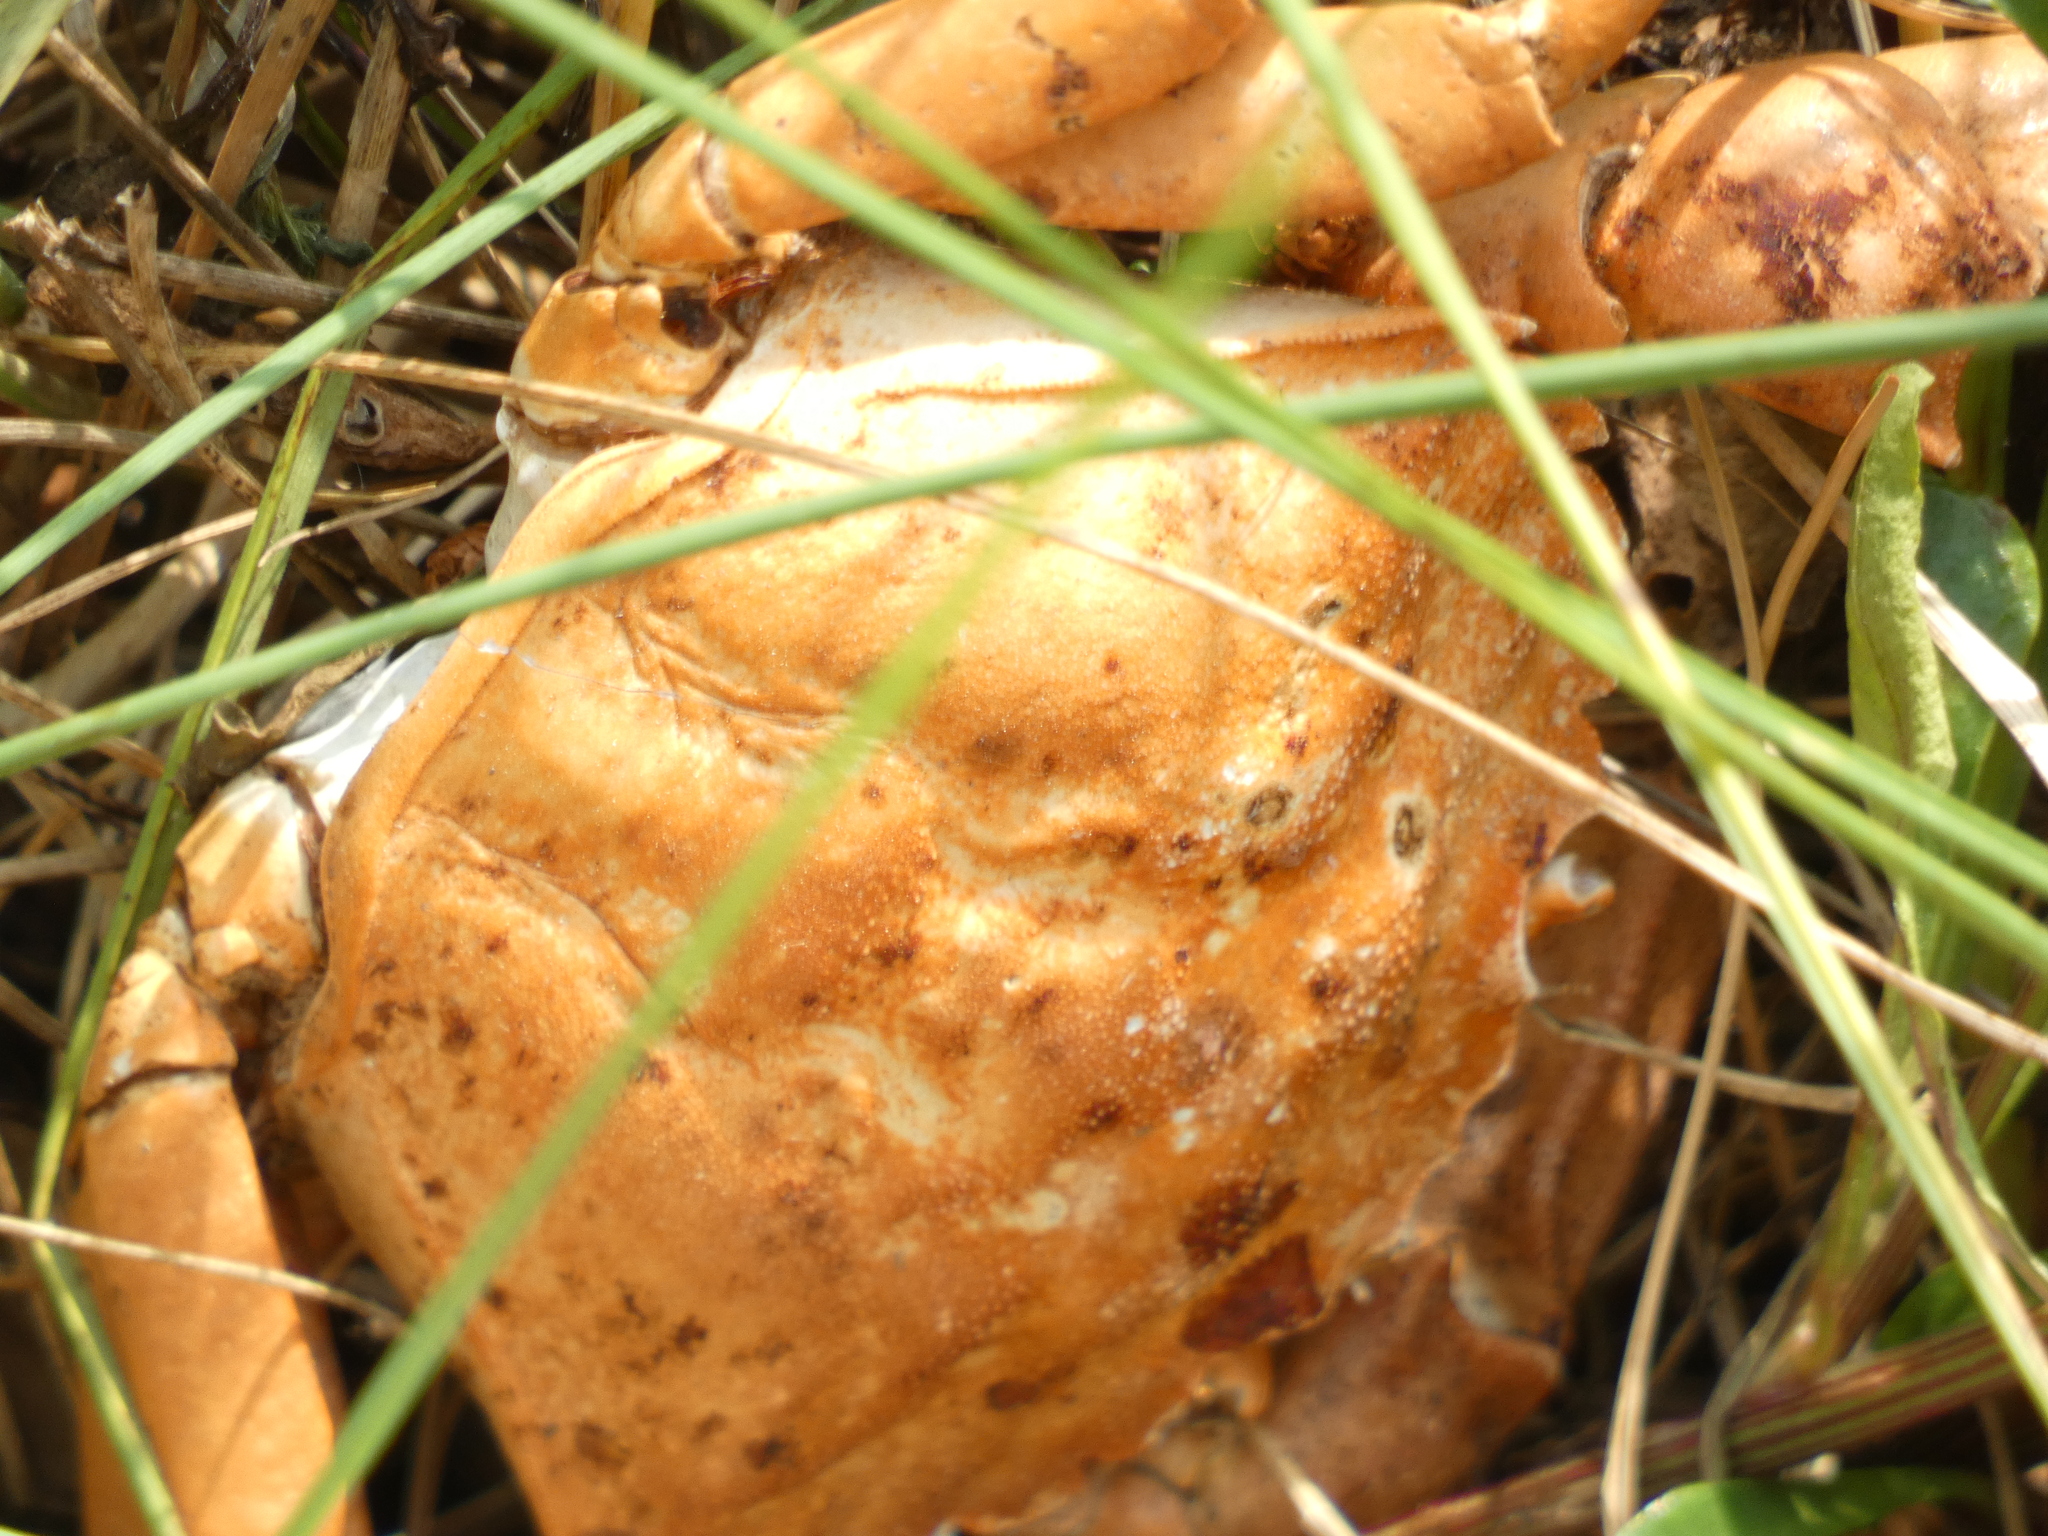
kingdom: Animalia
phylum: Arthropoda
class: Malacostraca
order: Decapoda
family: Carcinidae
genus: Carcinus
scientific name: Carcinus maenas
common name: European green crab
